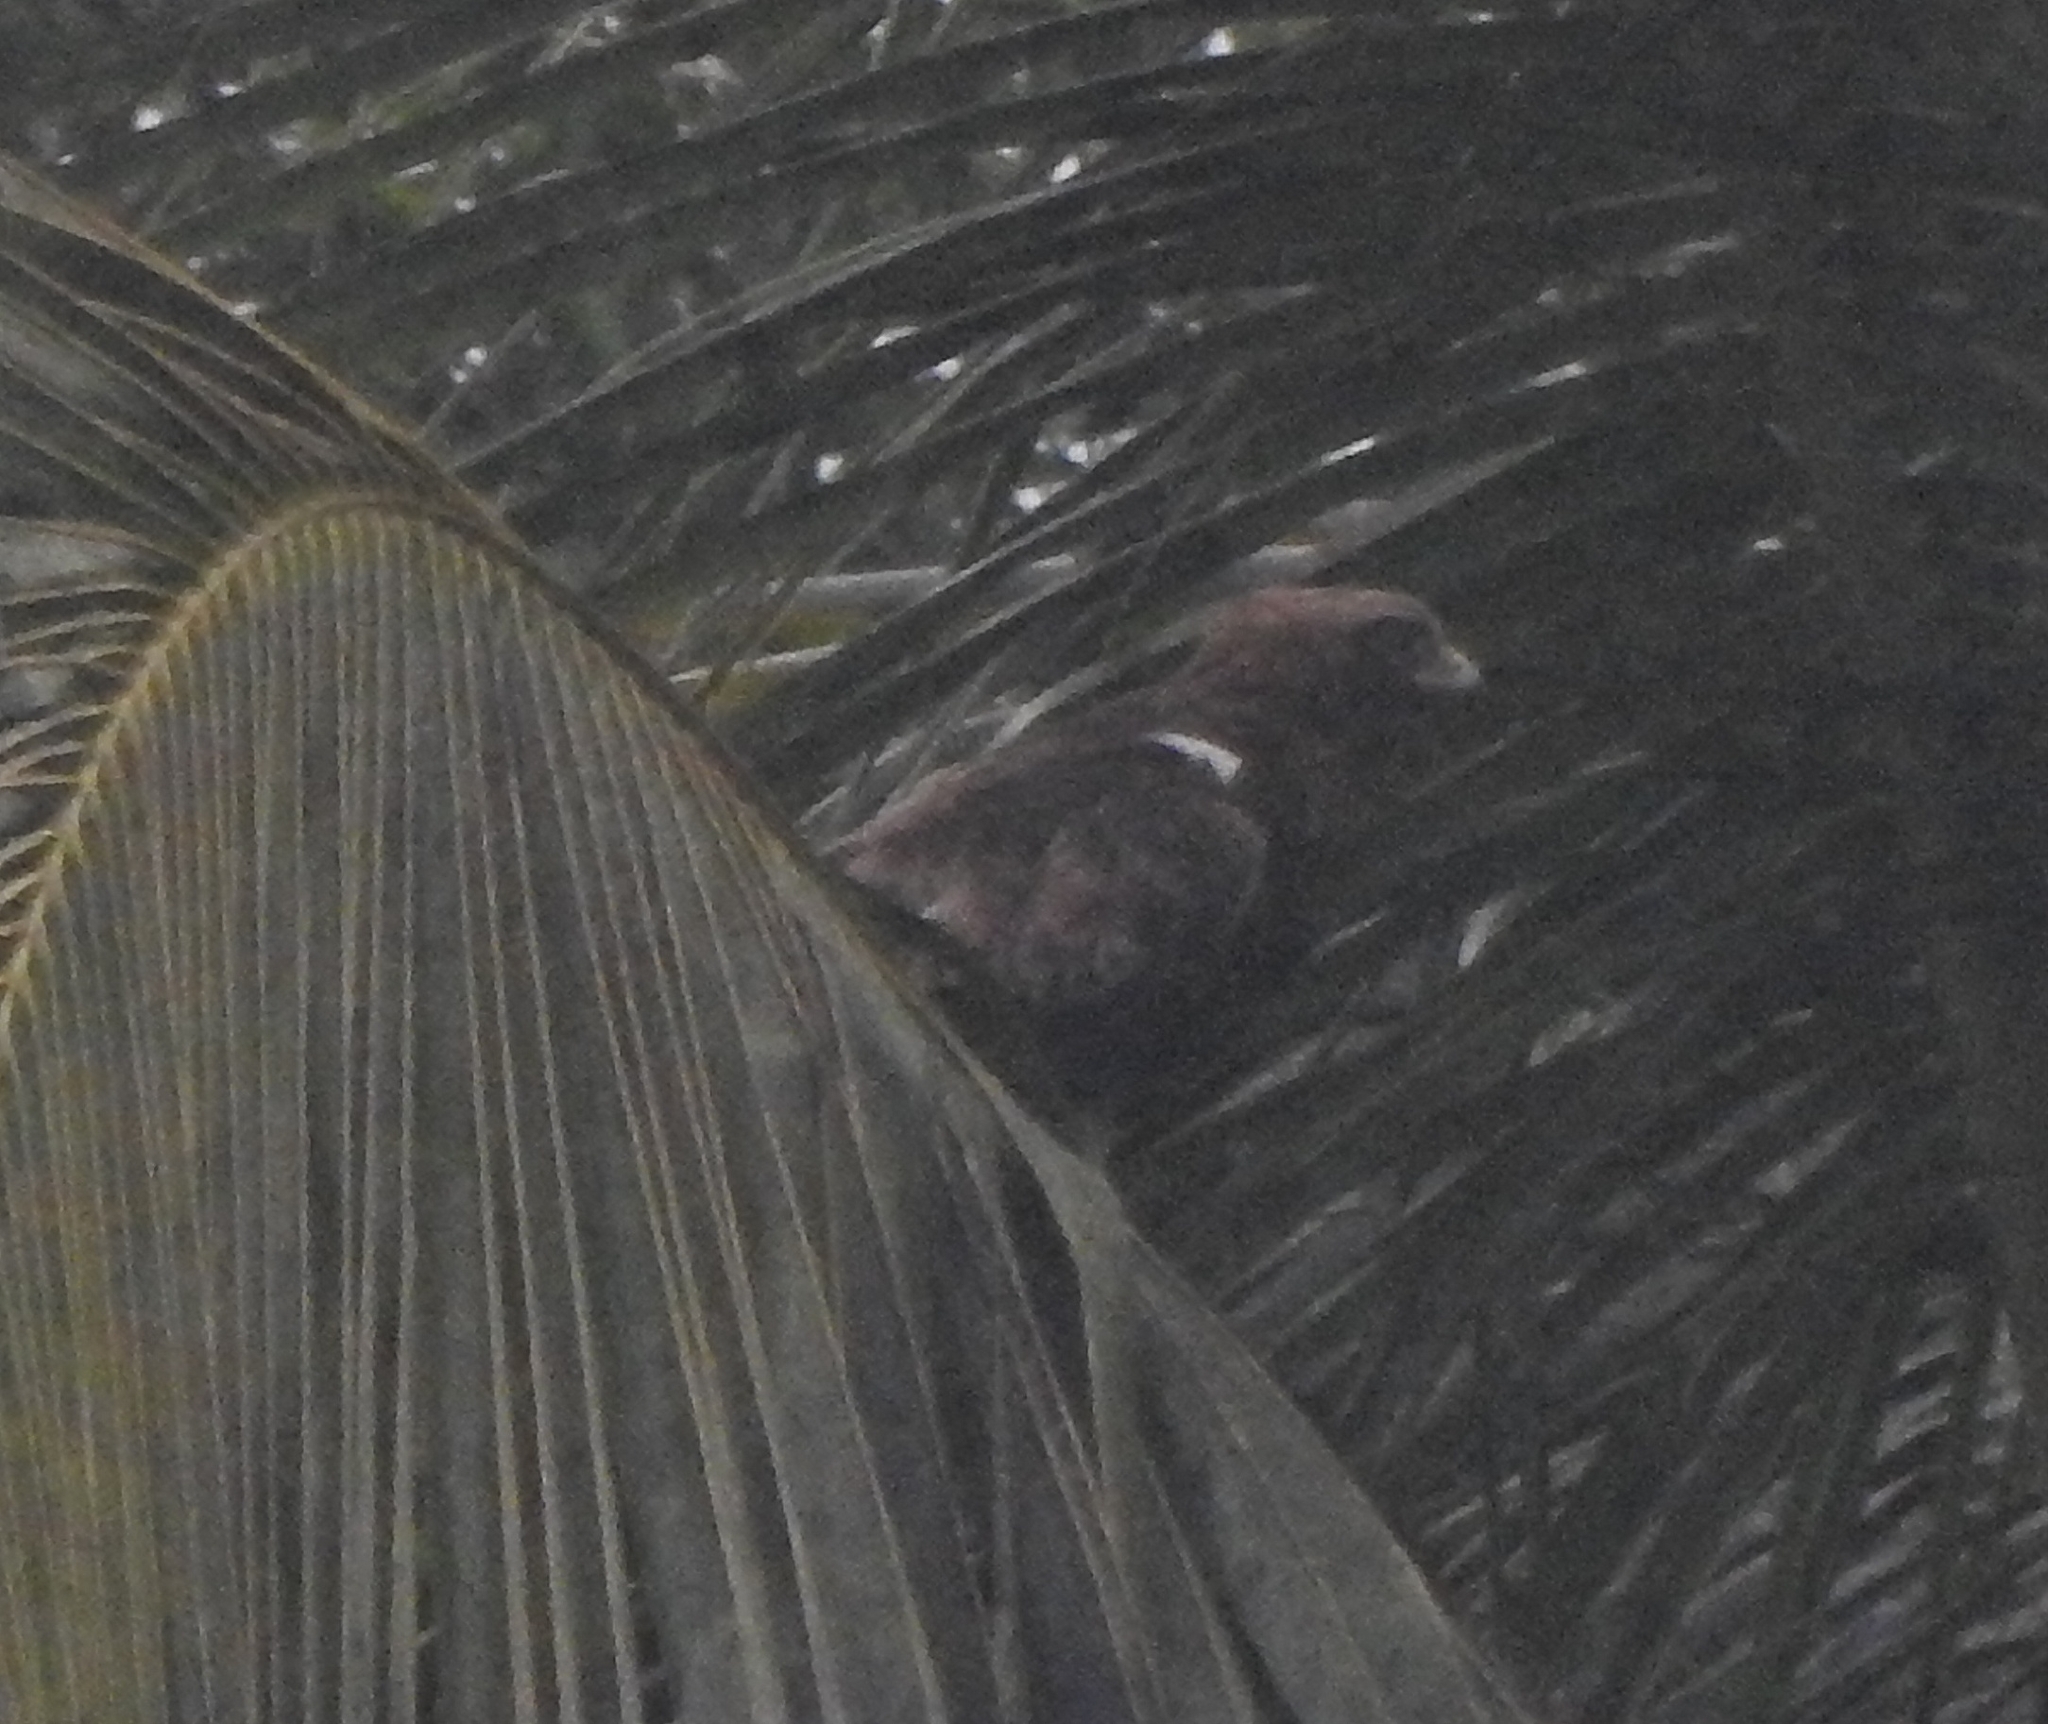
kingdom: Animalia
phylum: Chordata
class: Aves
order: Accipitriformes
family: Accipitridae
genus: Hieraaetus
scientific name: Hieraaetus pennatus
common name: Booted eagle
